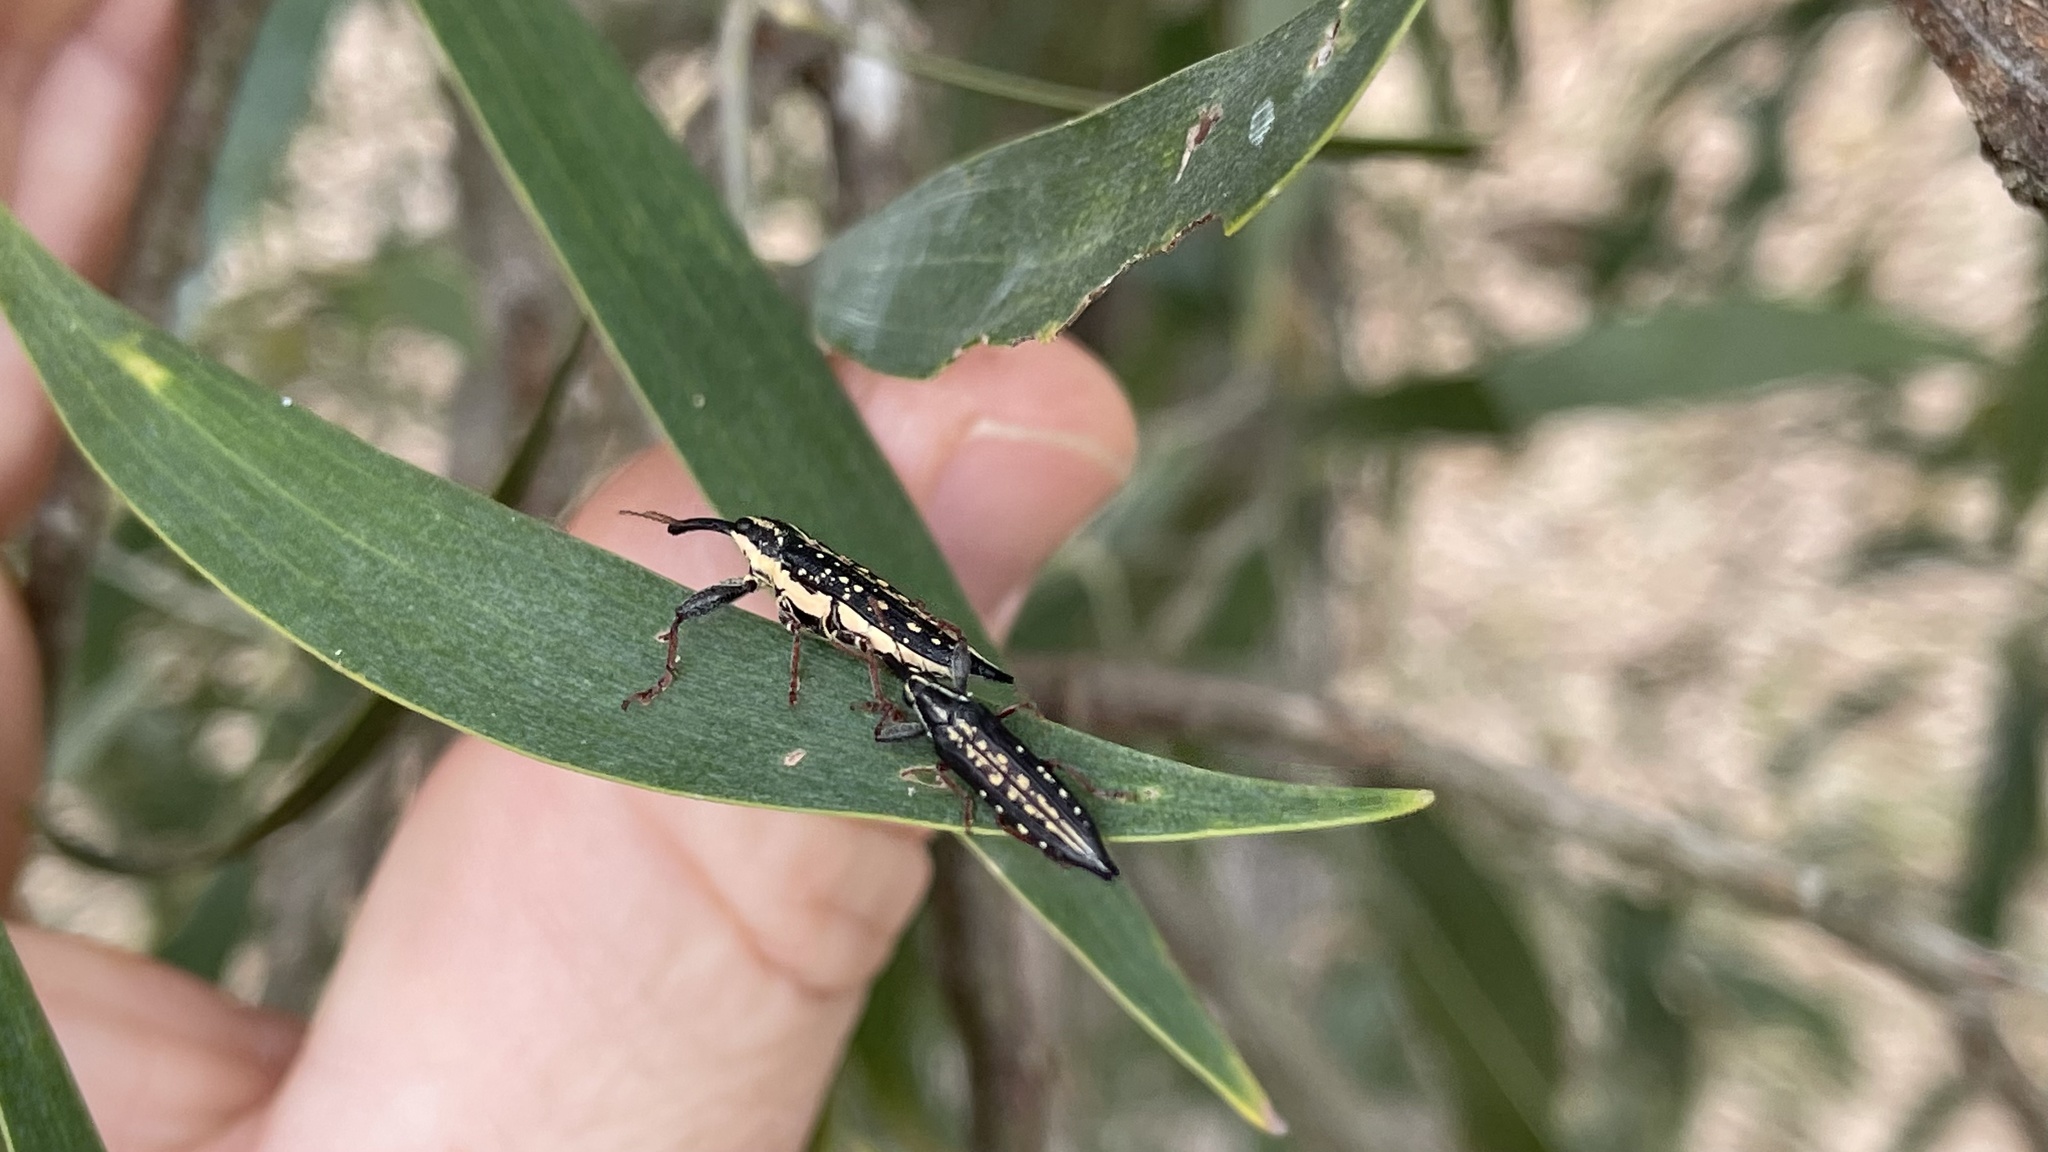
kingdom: Animalia
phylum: Arthropoda
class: Insecta
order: Coleoptera
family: Belidae
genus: Rhinotia
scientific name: Rhinotia lineata
